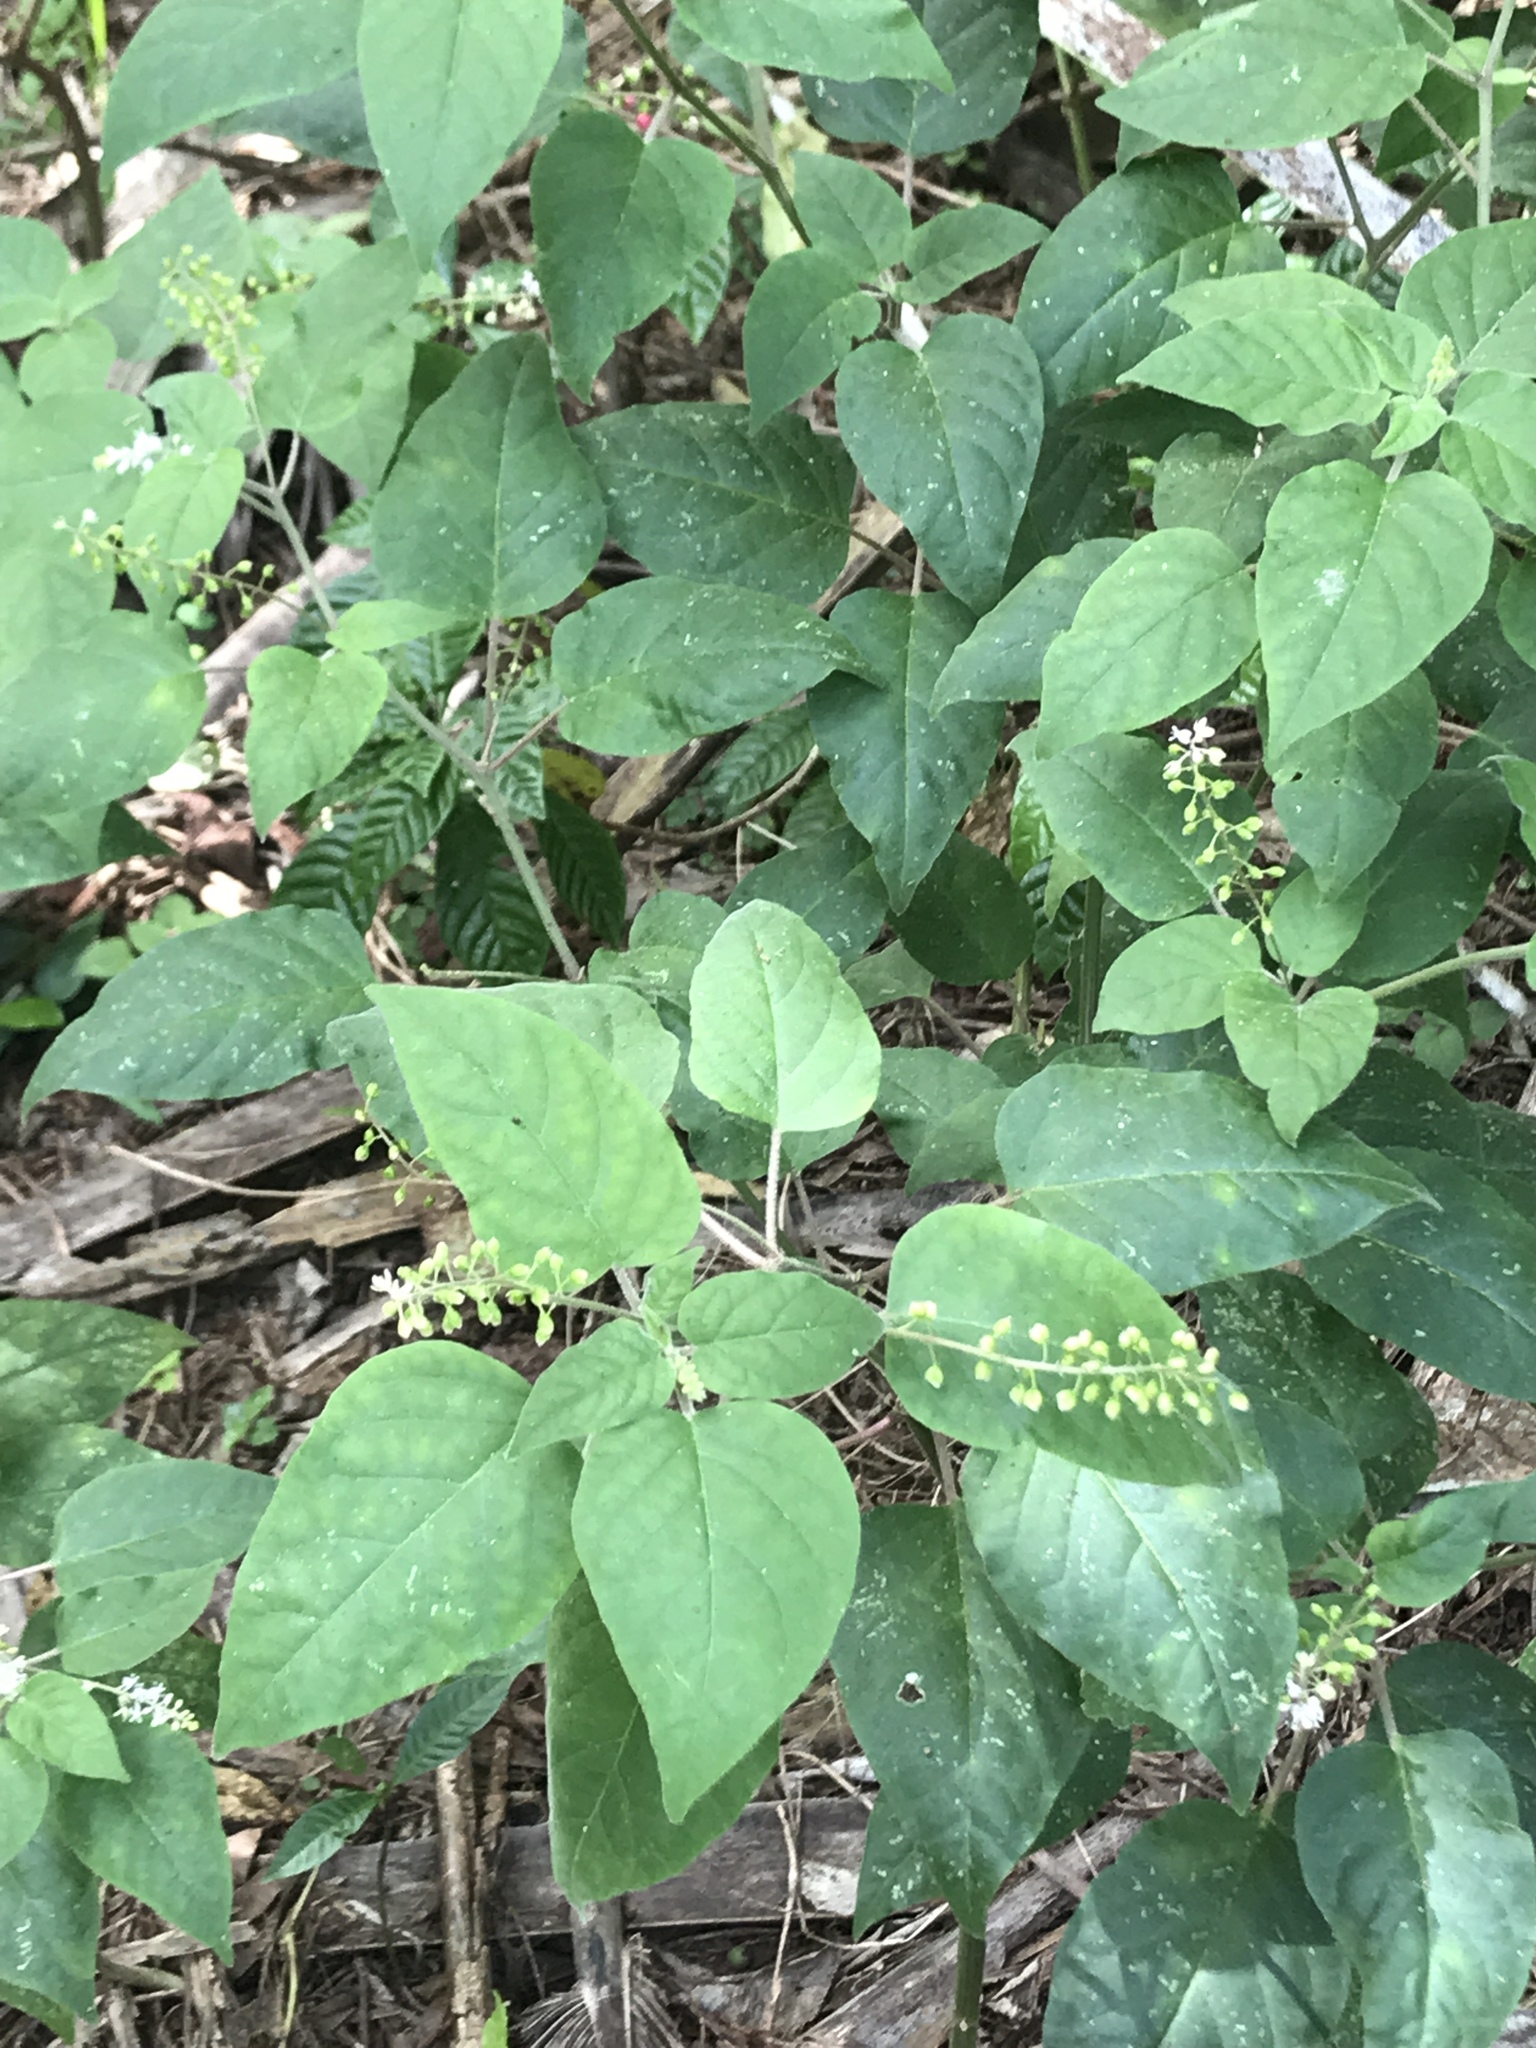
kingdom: Plantae
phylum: Tracheophyta
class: Magnoliopsida
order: Caryophyllales
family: Phytolaccaceae
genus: Rivina
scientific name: Rivina humilis
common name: Rougeplant
